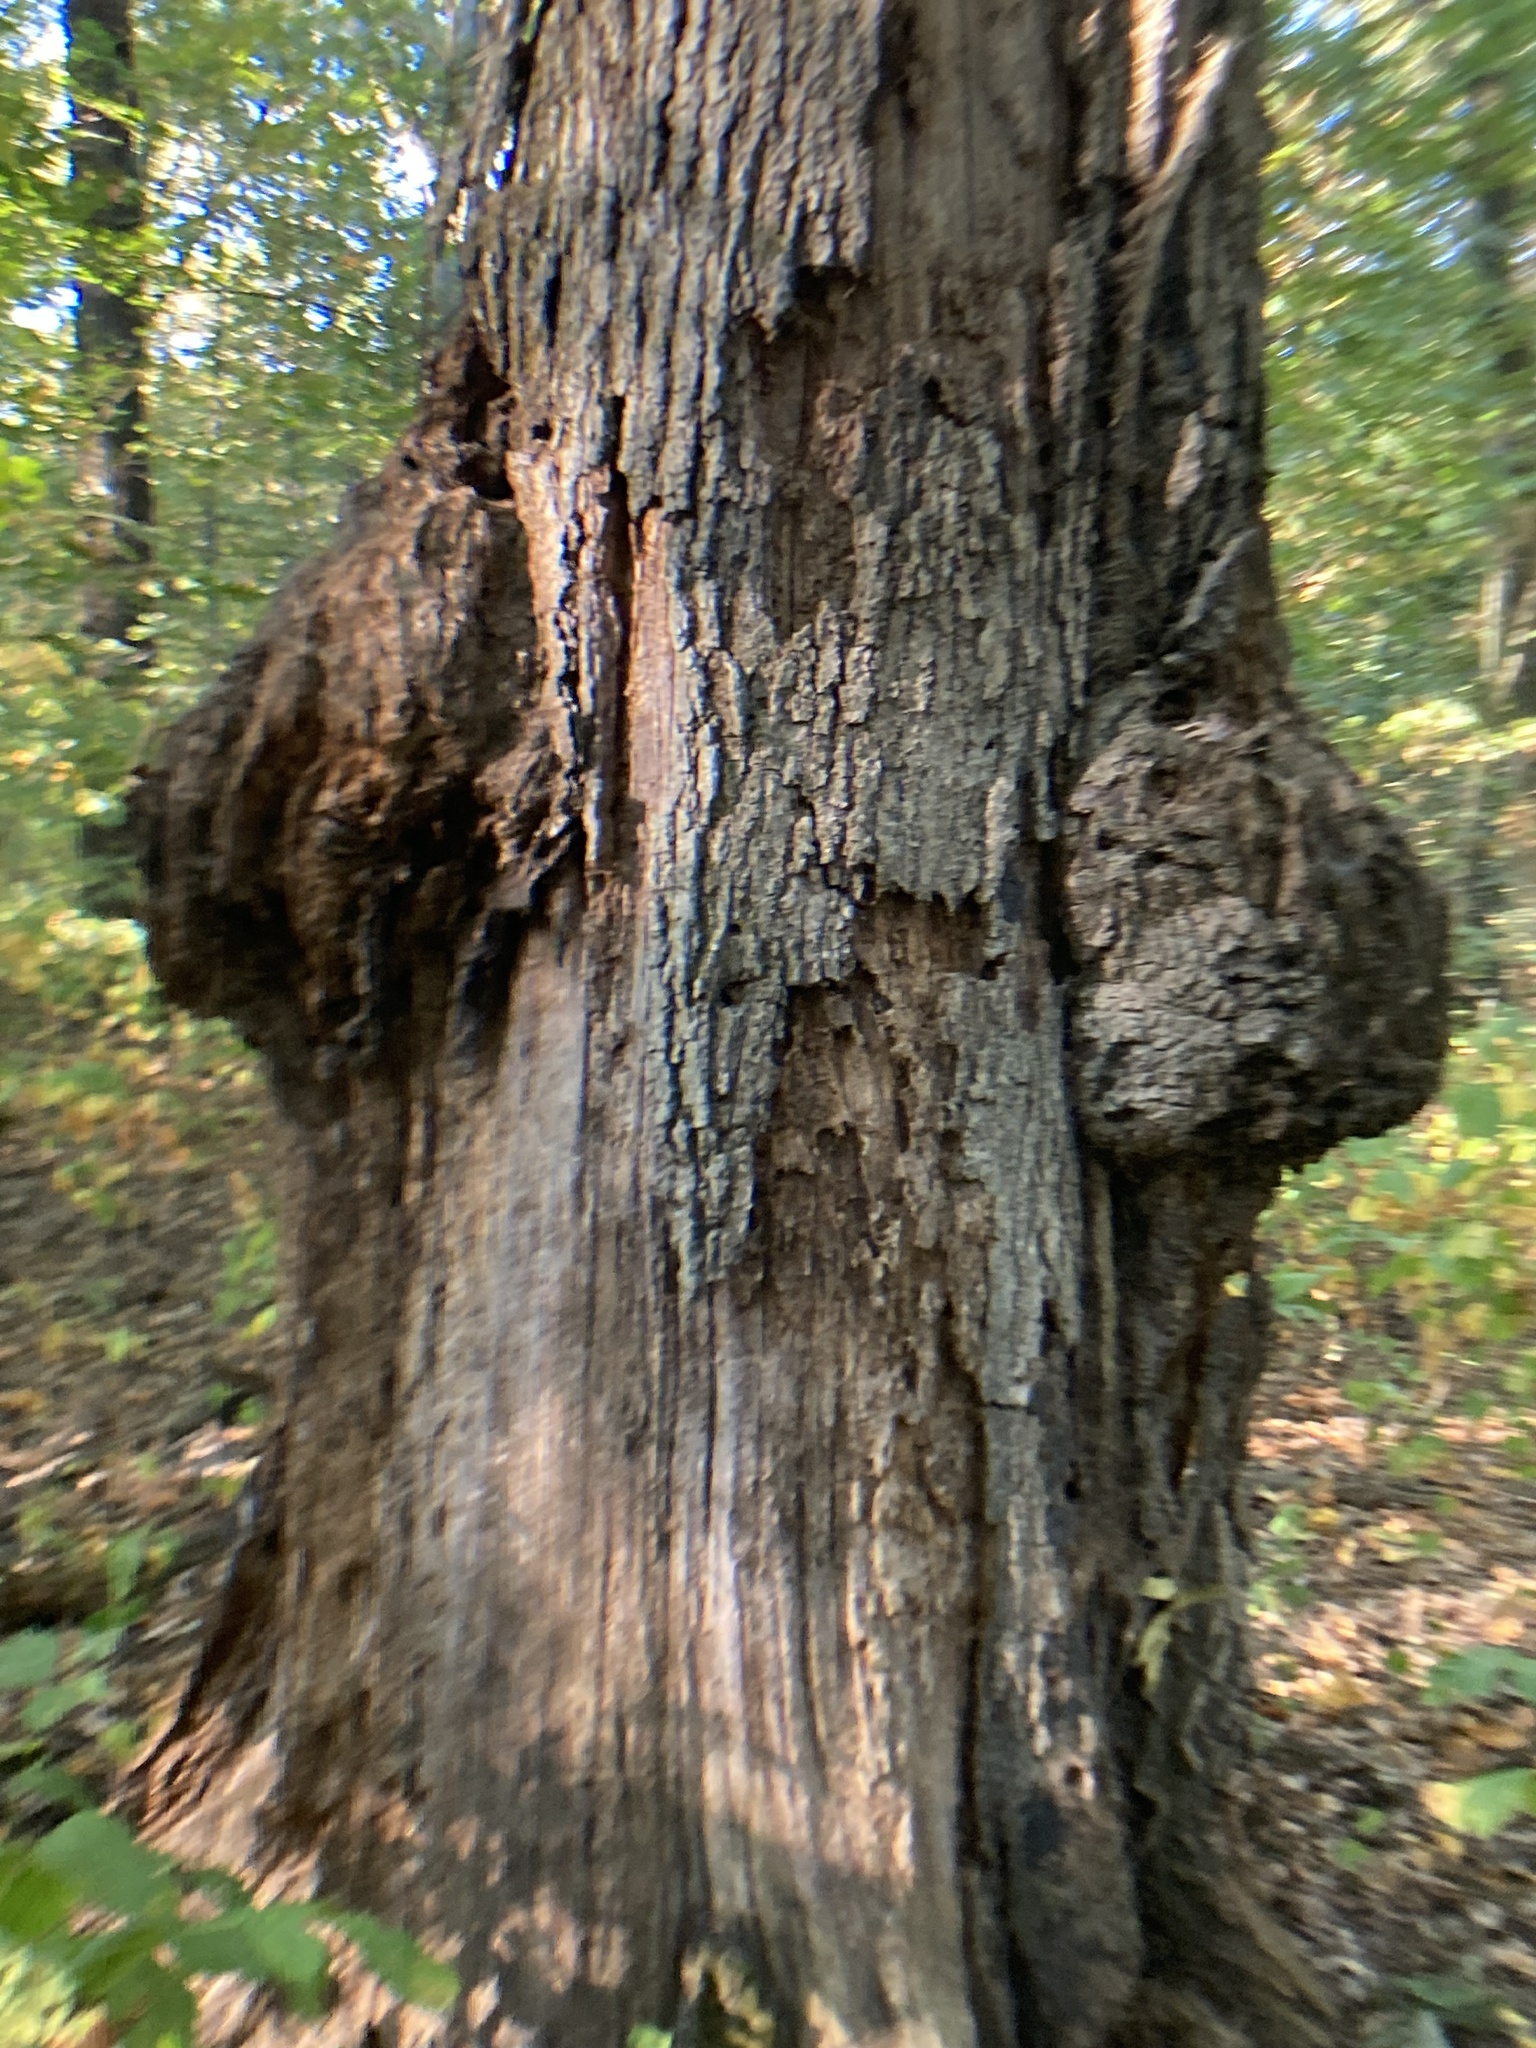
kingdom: Bacteria
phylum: Proteobacteria
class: Alphaproteobacteria
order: Rhizobiales
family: Rhizobiaceae
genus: Rhizobium
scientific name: Rhizobium Agrobacterium radiobacter
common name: Bacterial crown gall
